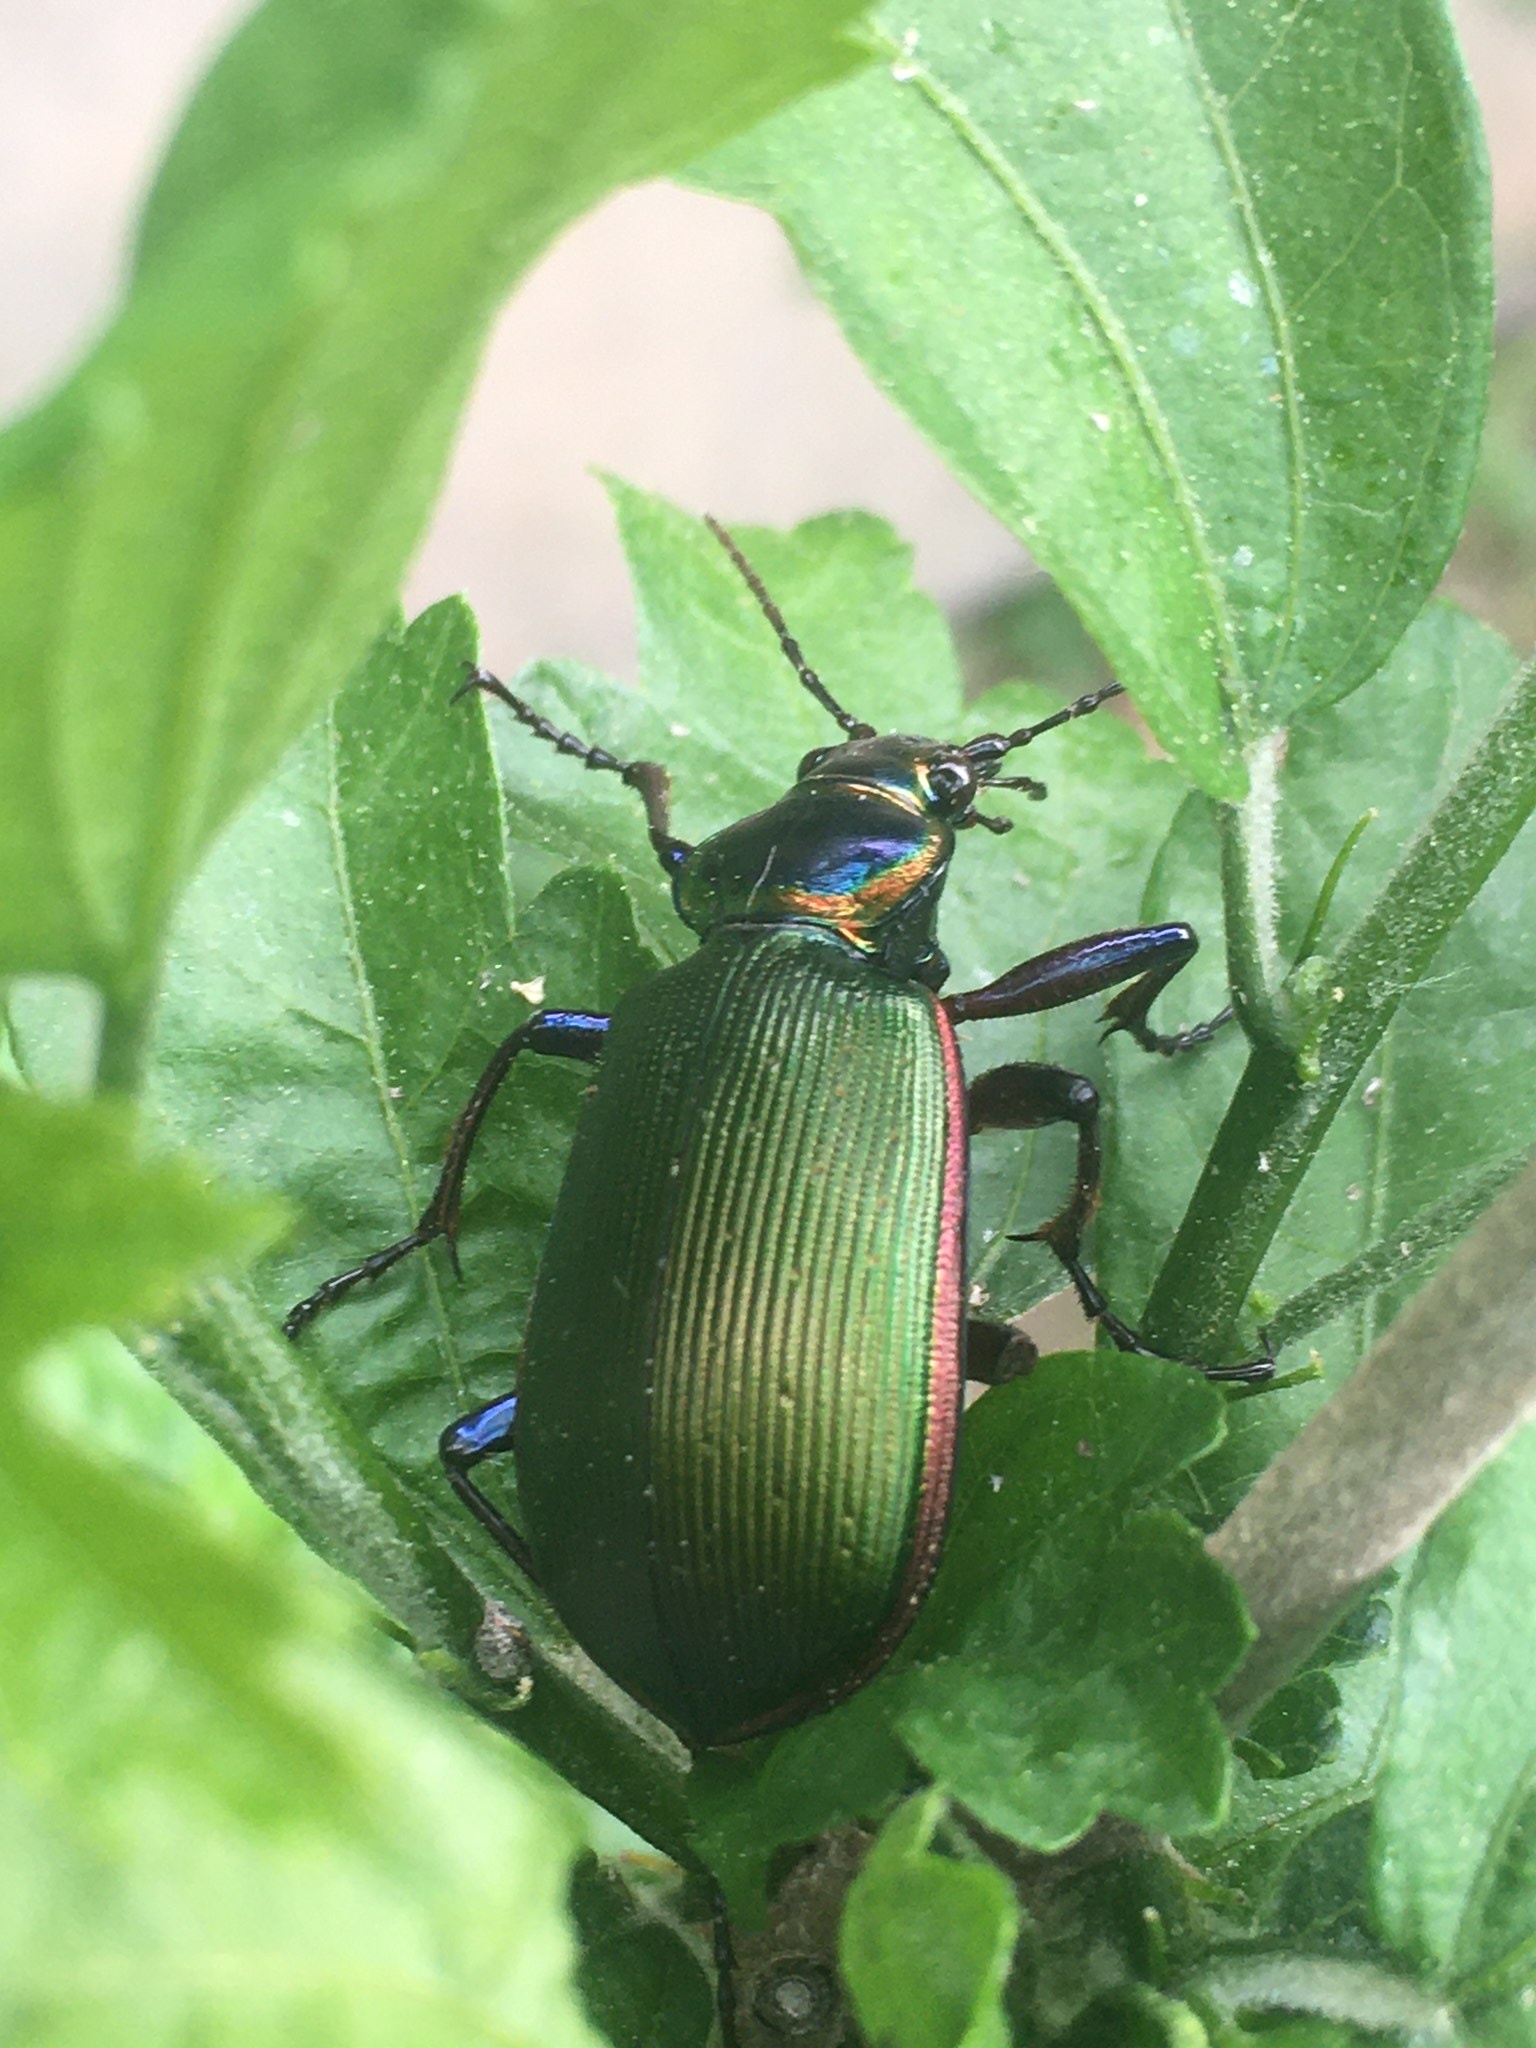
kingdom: Animalia
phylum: Arthropoda
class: Insecta
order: Coleoptera
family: Carabidae
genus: Calosoma
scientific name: Calosoma scrutator
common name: Fiery searcher beetle
